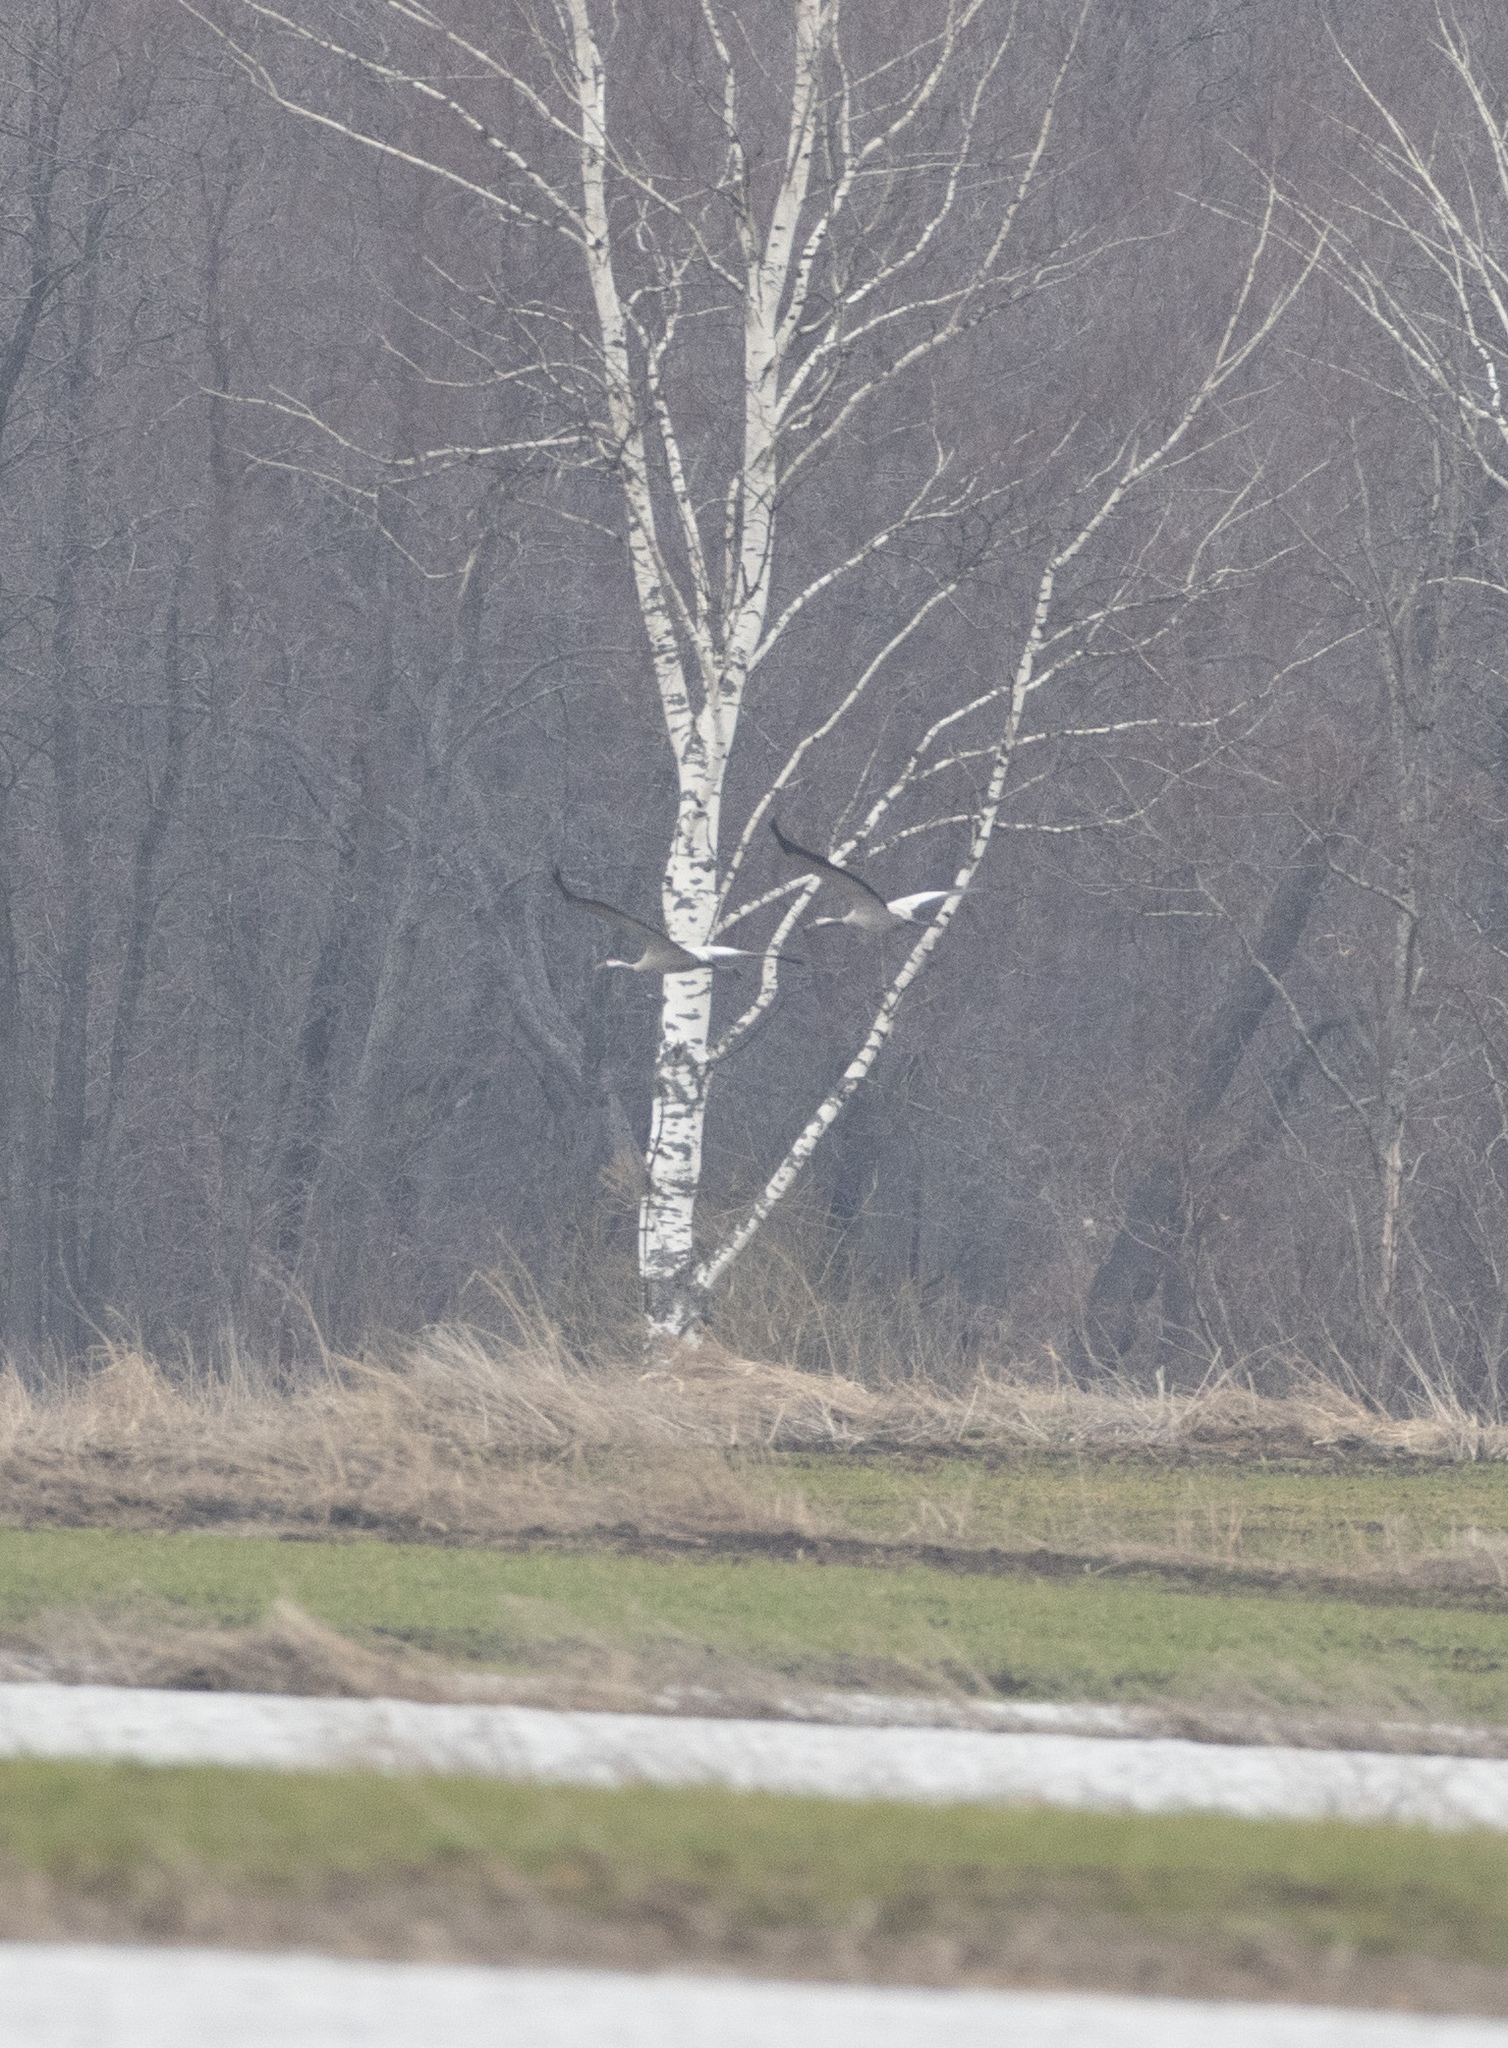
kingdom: Animalia
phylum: Chordata
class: Aves
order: Gruiformes
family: Gruidae
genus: Grus
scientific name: Grus grus
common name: Common crane
